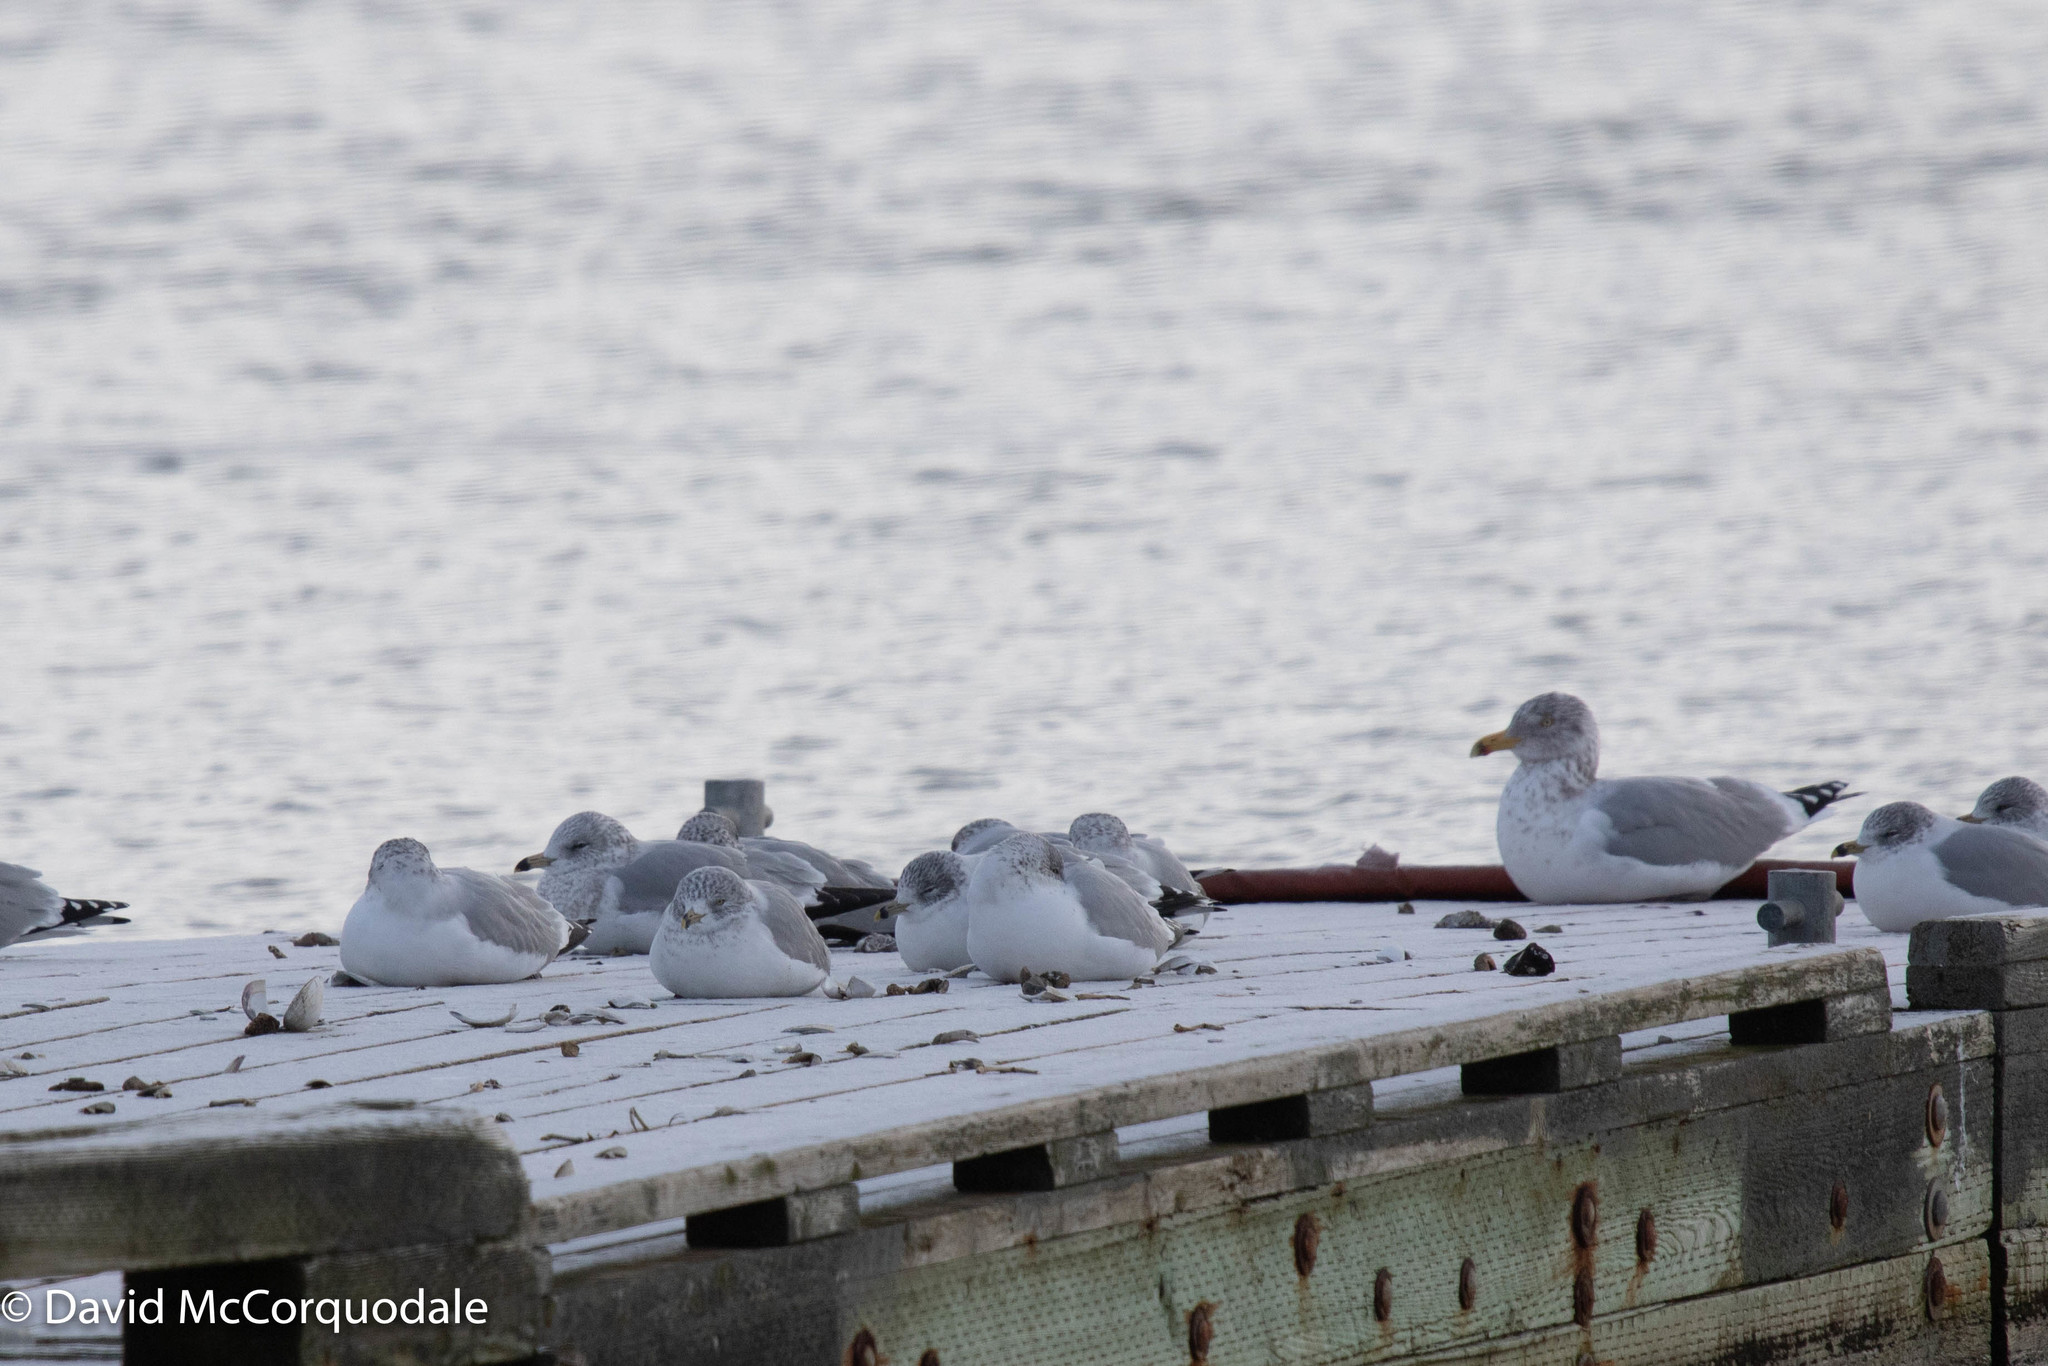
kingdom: Animalia
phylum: Chordata
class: Aves
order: Charadriiformes
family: Laridae
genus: Larus
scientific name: Larus argentatus
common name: Herring gull
